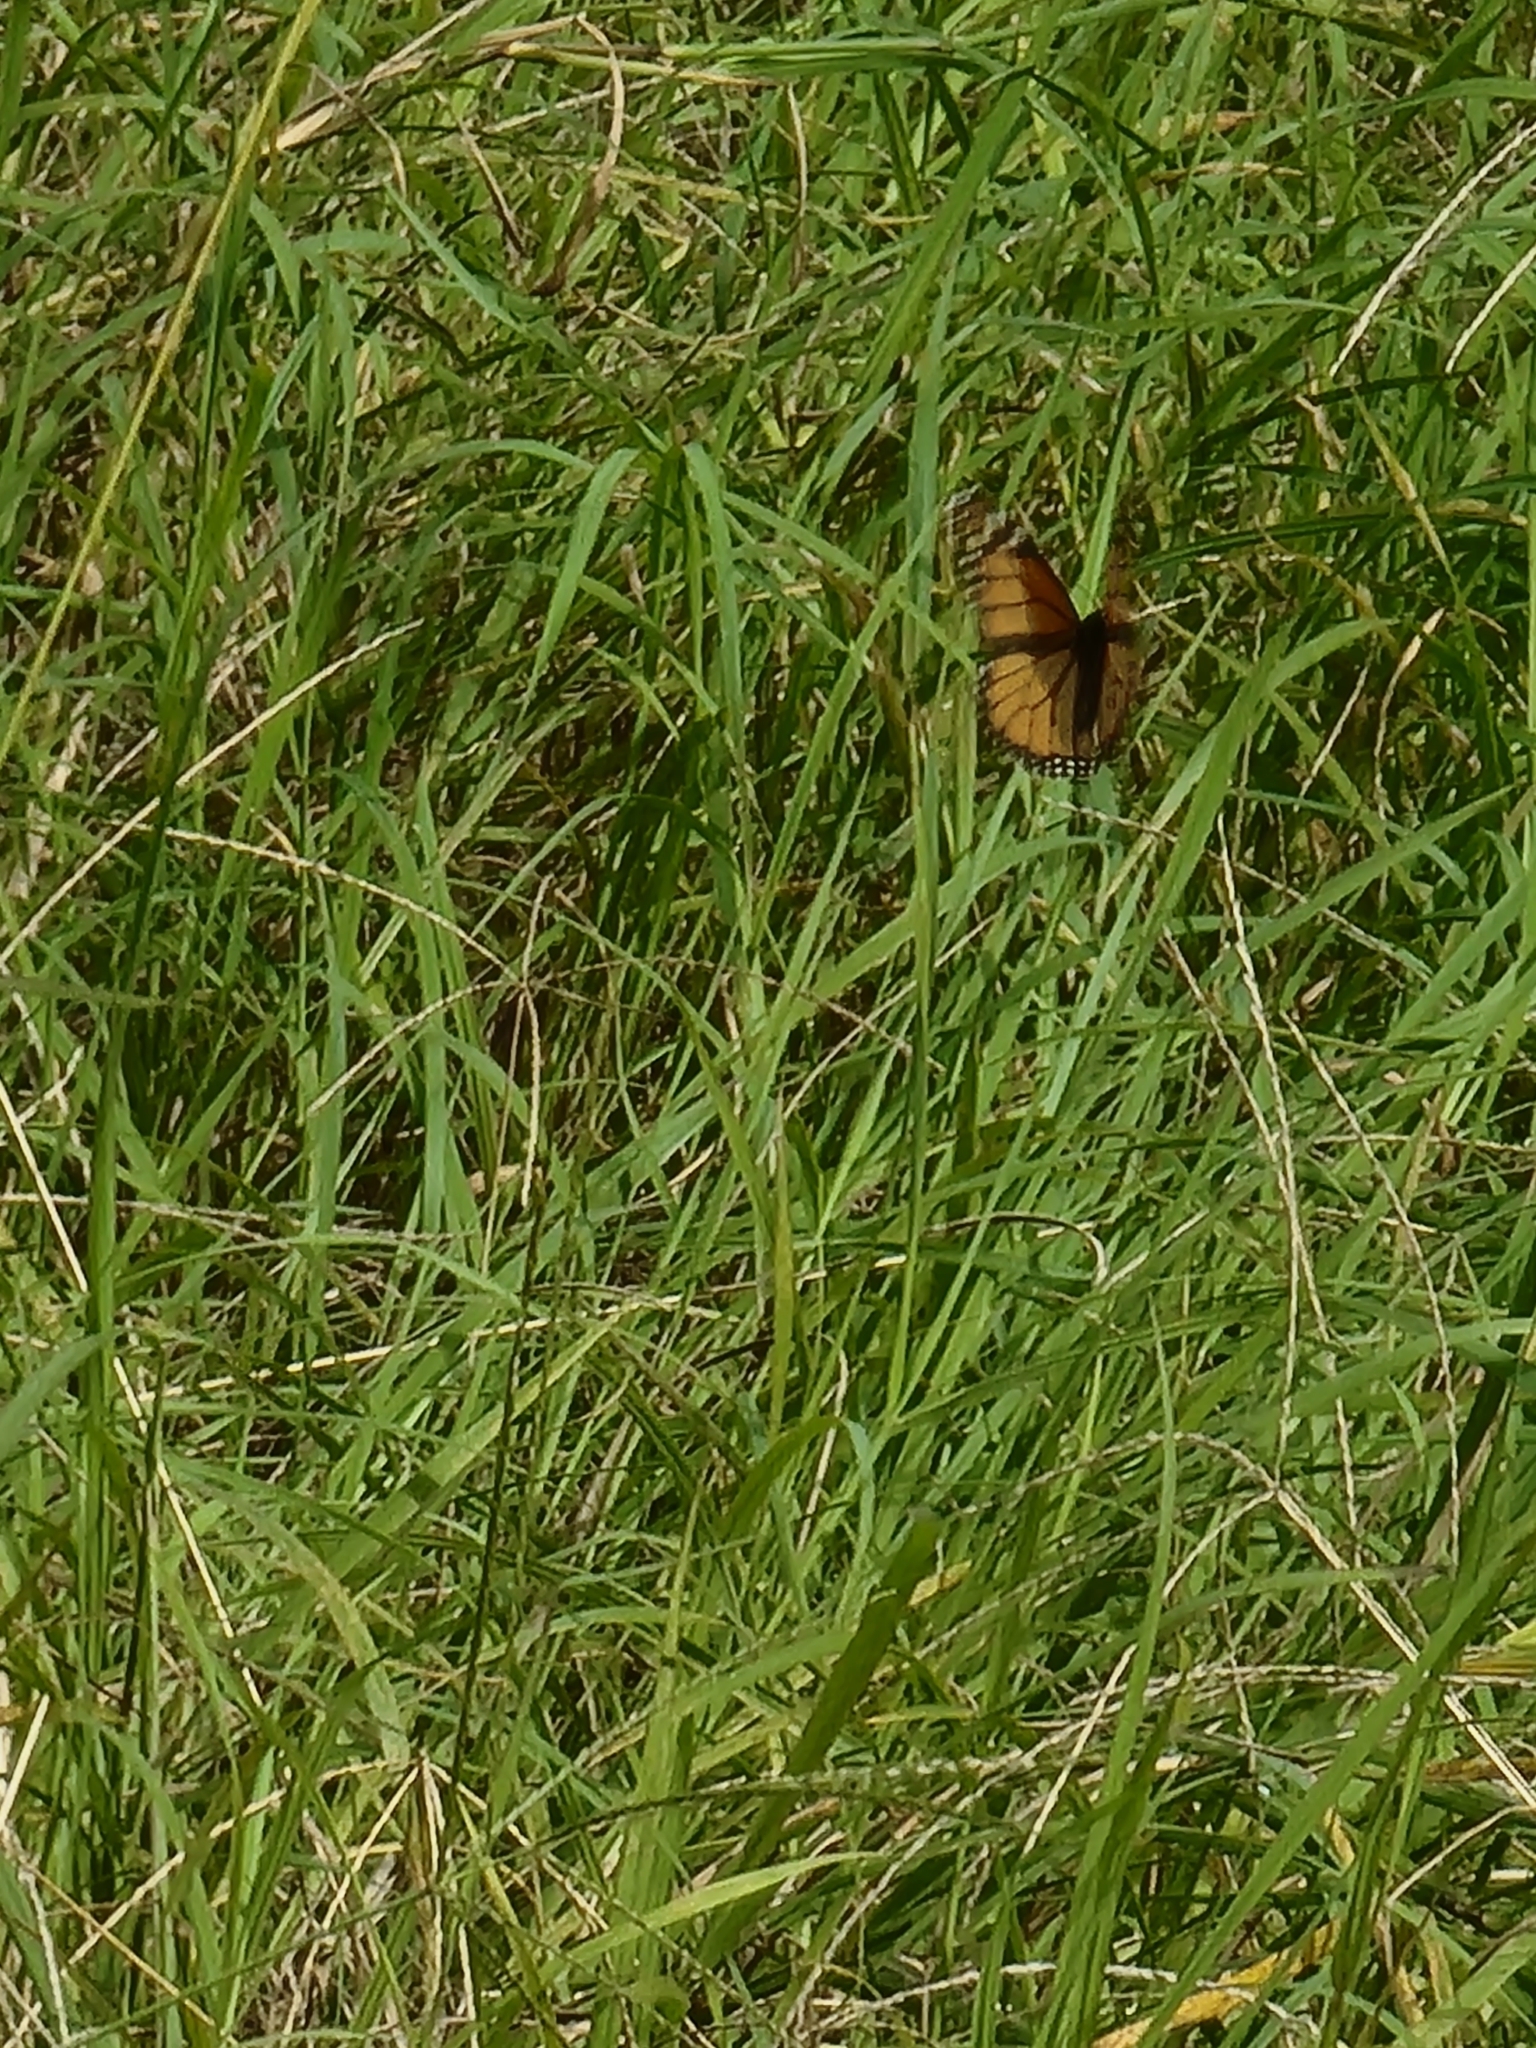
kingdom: Animalia
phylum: Arthropoda
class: Insecta
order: Lepidoptera
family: Nymphalidae
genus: Danaus
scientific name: Danaus plexippus
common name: Monarch
